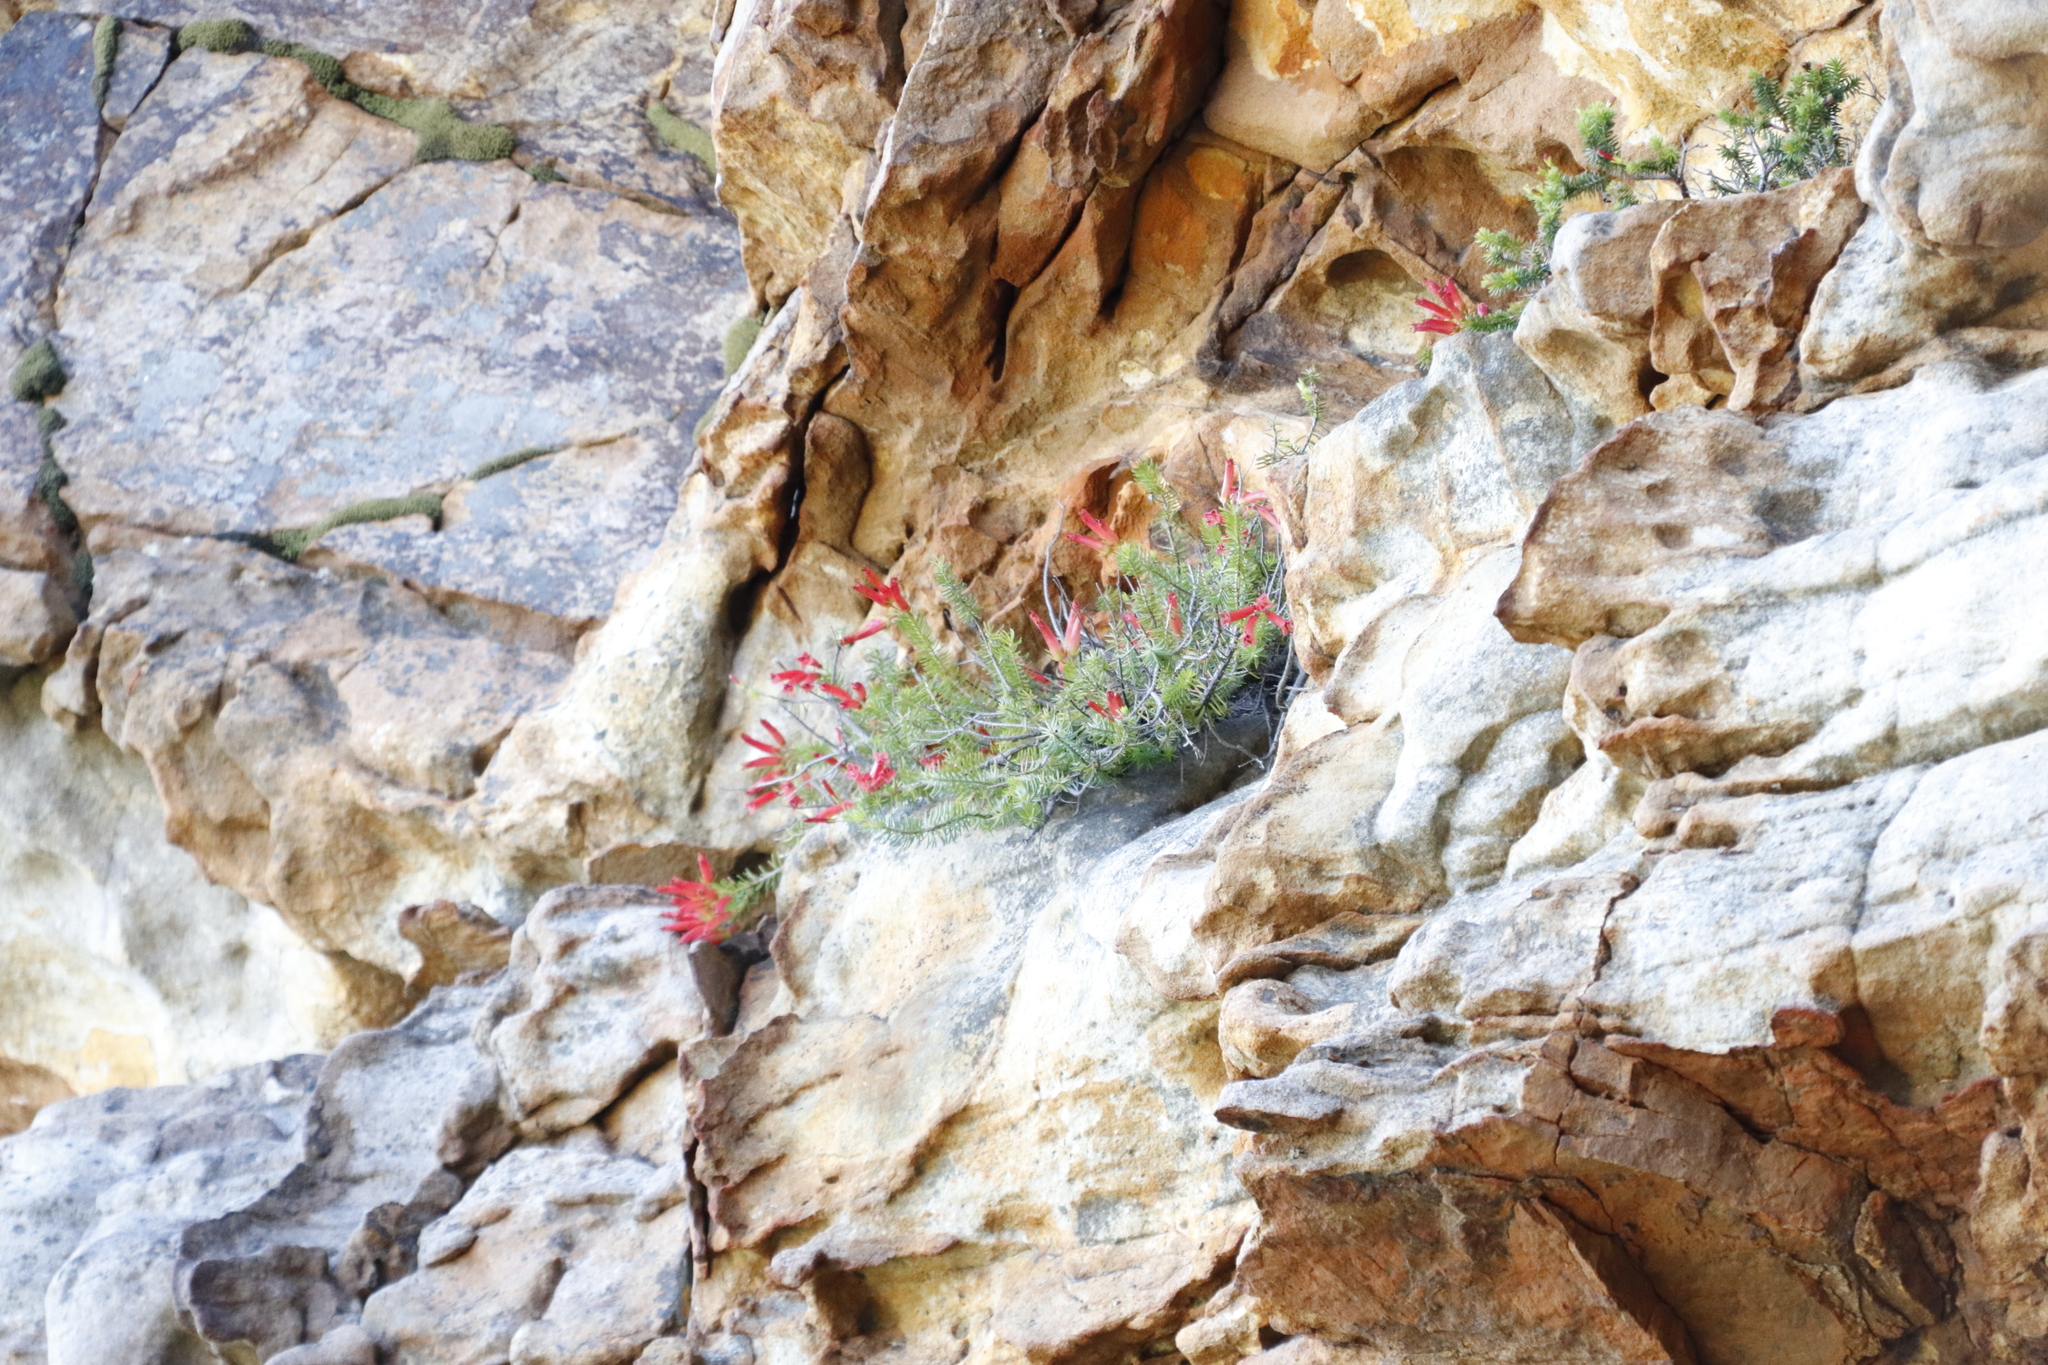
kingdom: Plantae
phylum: Tracheophyta
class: Magnoliopsida
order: Ericales
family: Ericaceae
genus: Erica
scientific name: Erica nevillei
